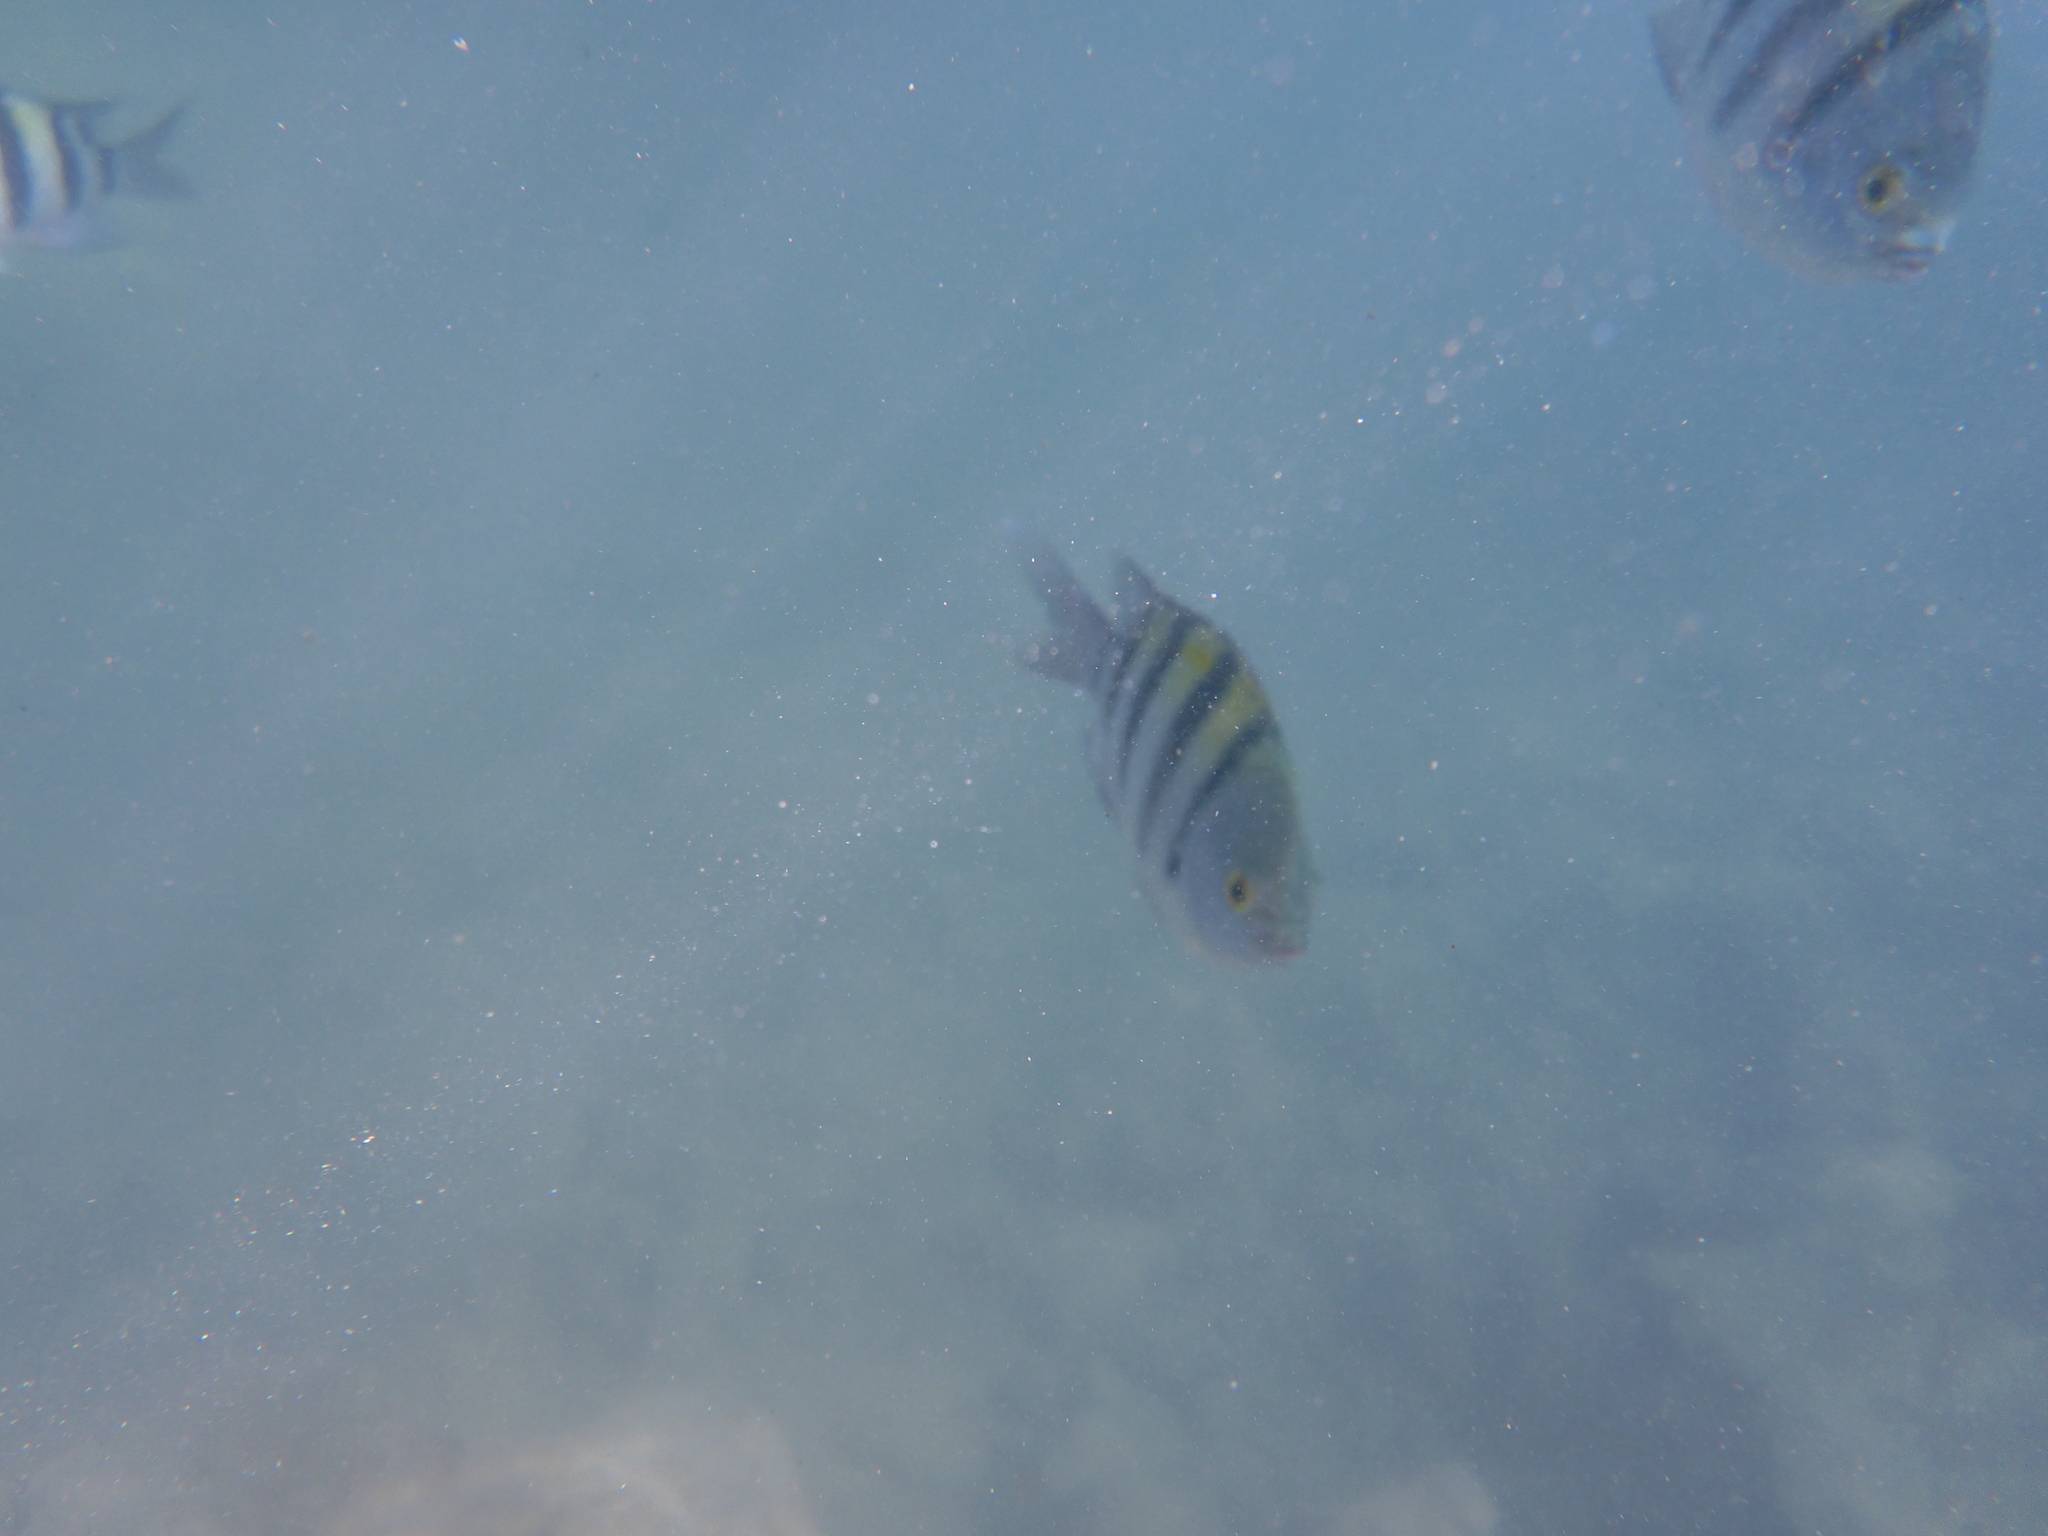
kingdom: Animalia
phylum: Chordata
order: Perciformes
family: Pomacentridae
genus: Abudefduf
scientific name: Abudefduf vaigiensis
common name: Indo-pacific sergeant
